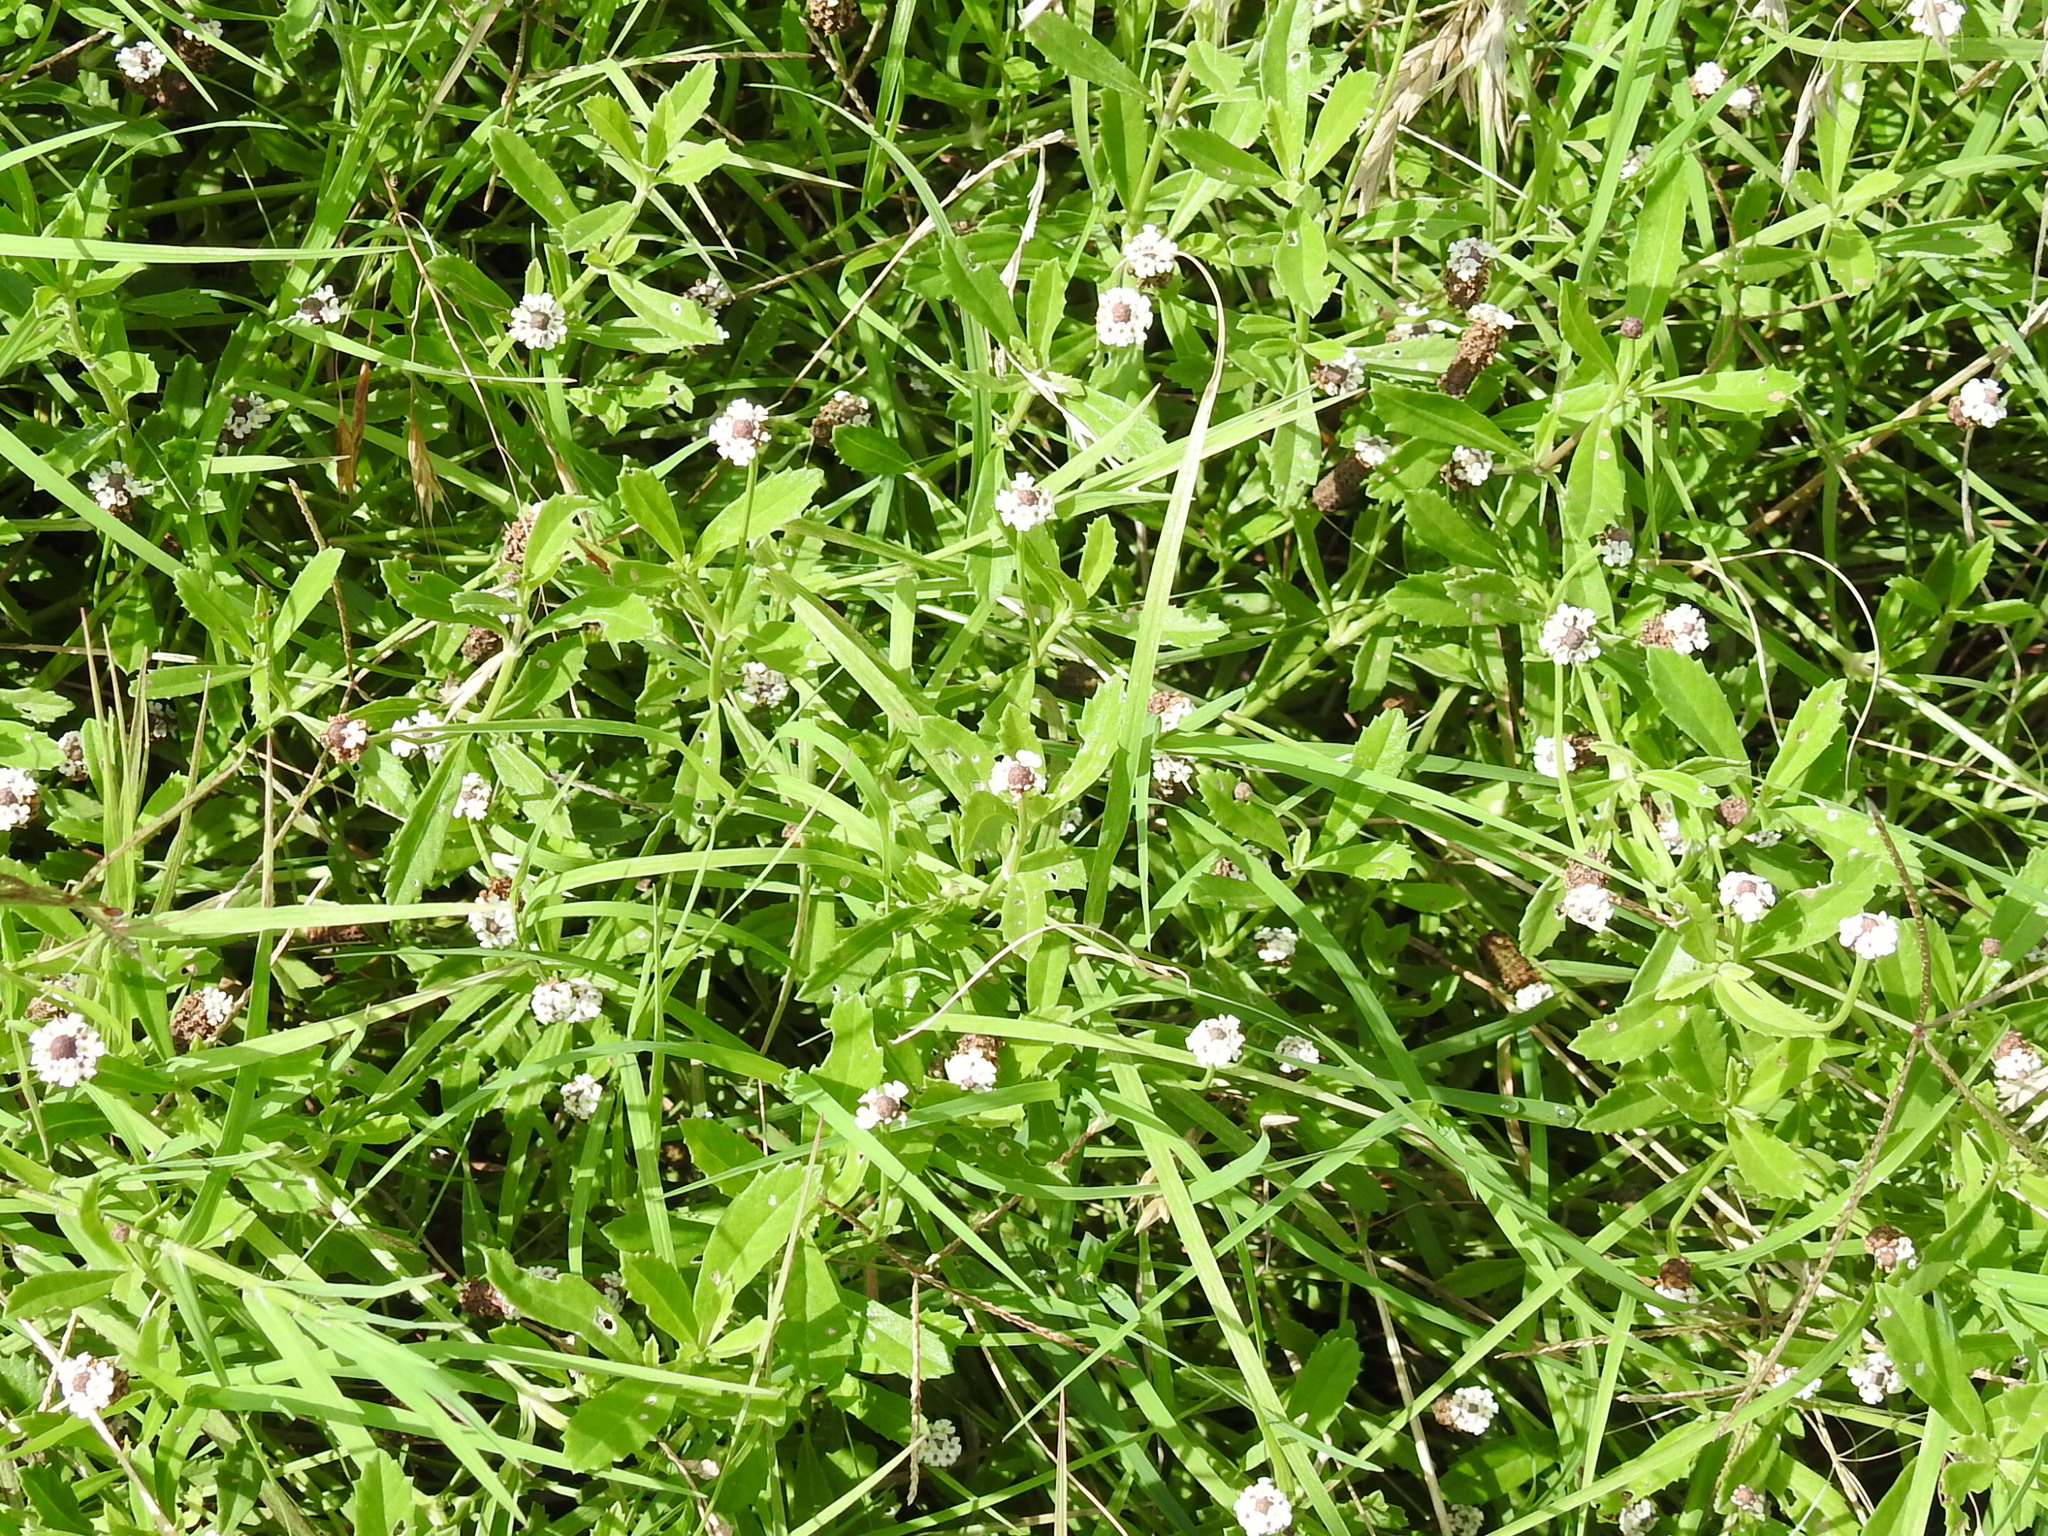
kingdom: Plantae
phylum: Tracheophyta
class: Magnoliopsida
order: Lamiales
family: Verbenaceae
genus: Phyla
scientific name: Phyla nodiflora
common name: Frogfruit
